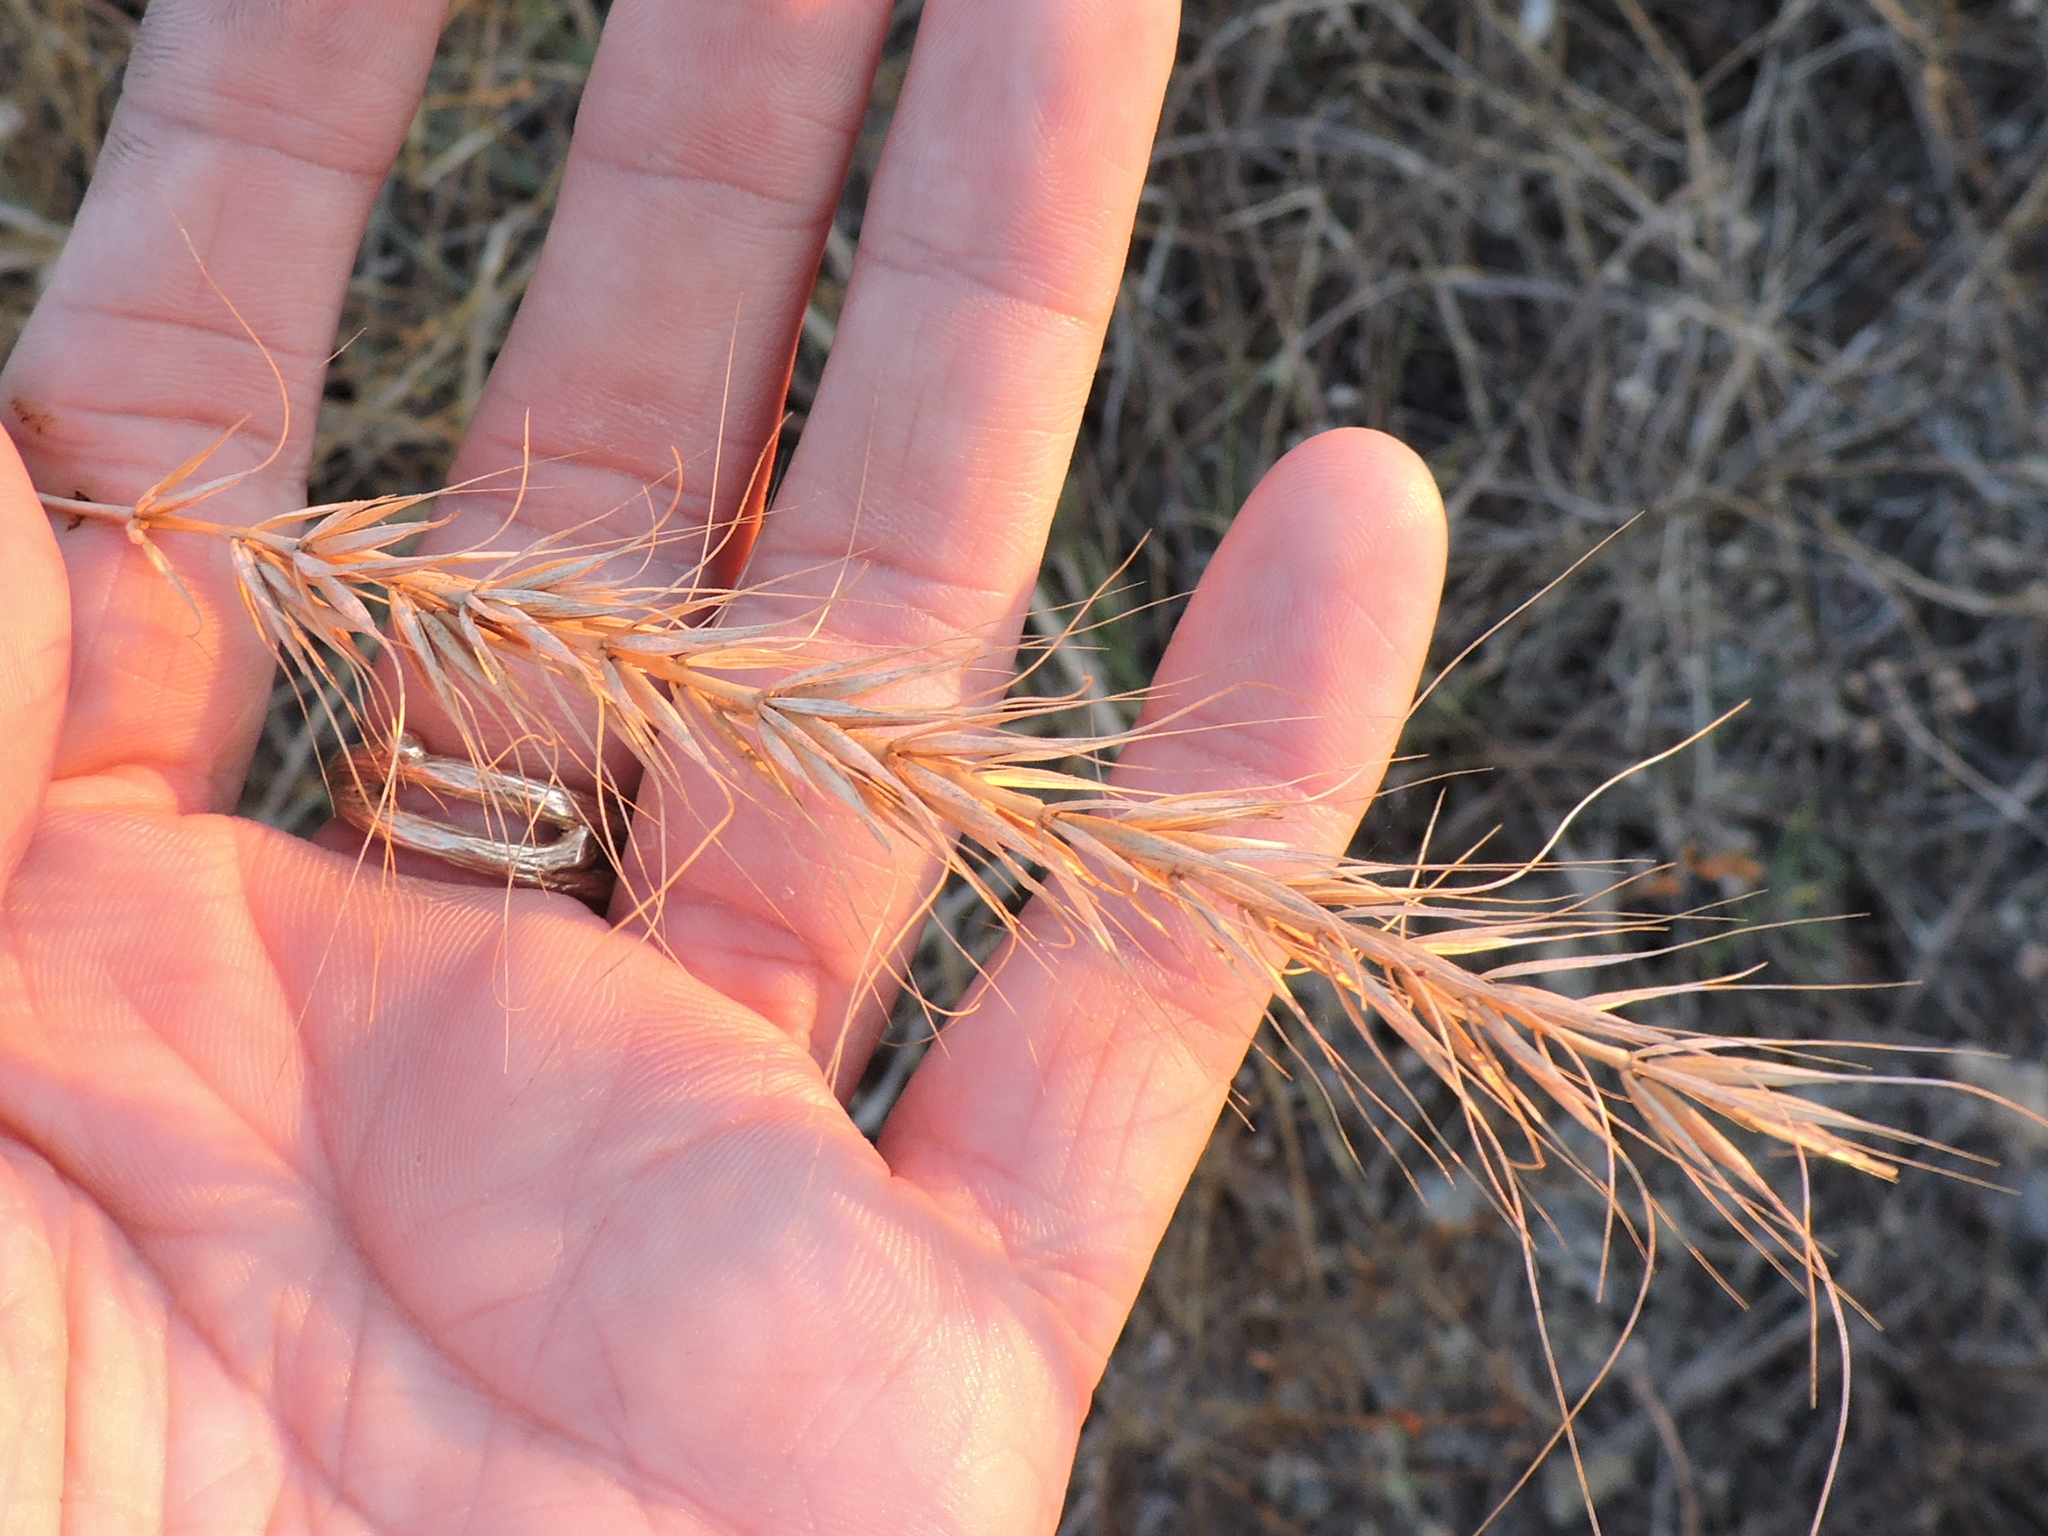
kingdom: Plantae
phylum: Tracheophyta
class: Liliopsida
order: Poales
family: Poaceae
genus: Elymus
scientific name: Elymus canadensis
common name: Canada wild rye
